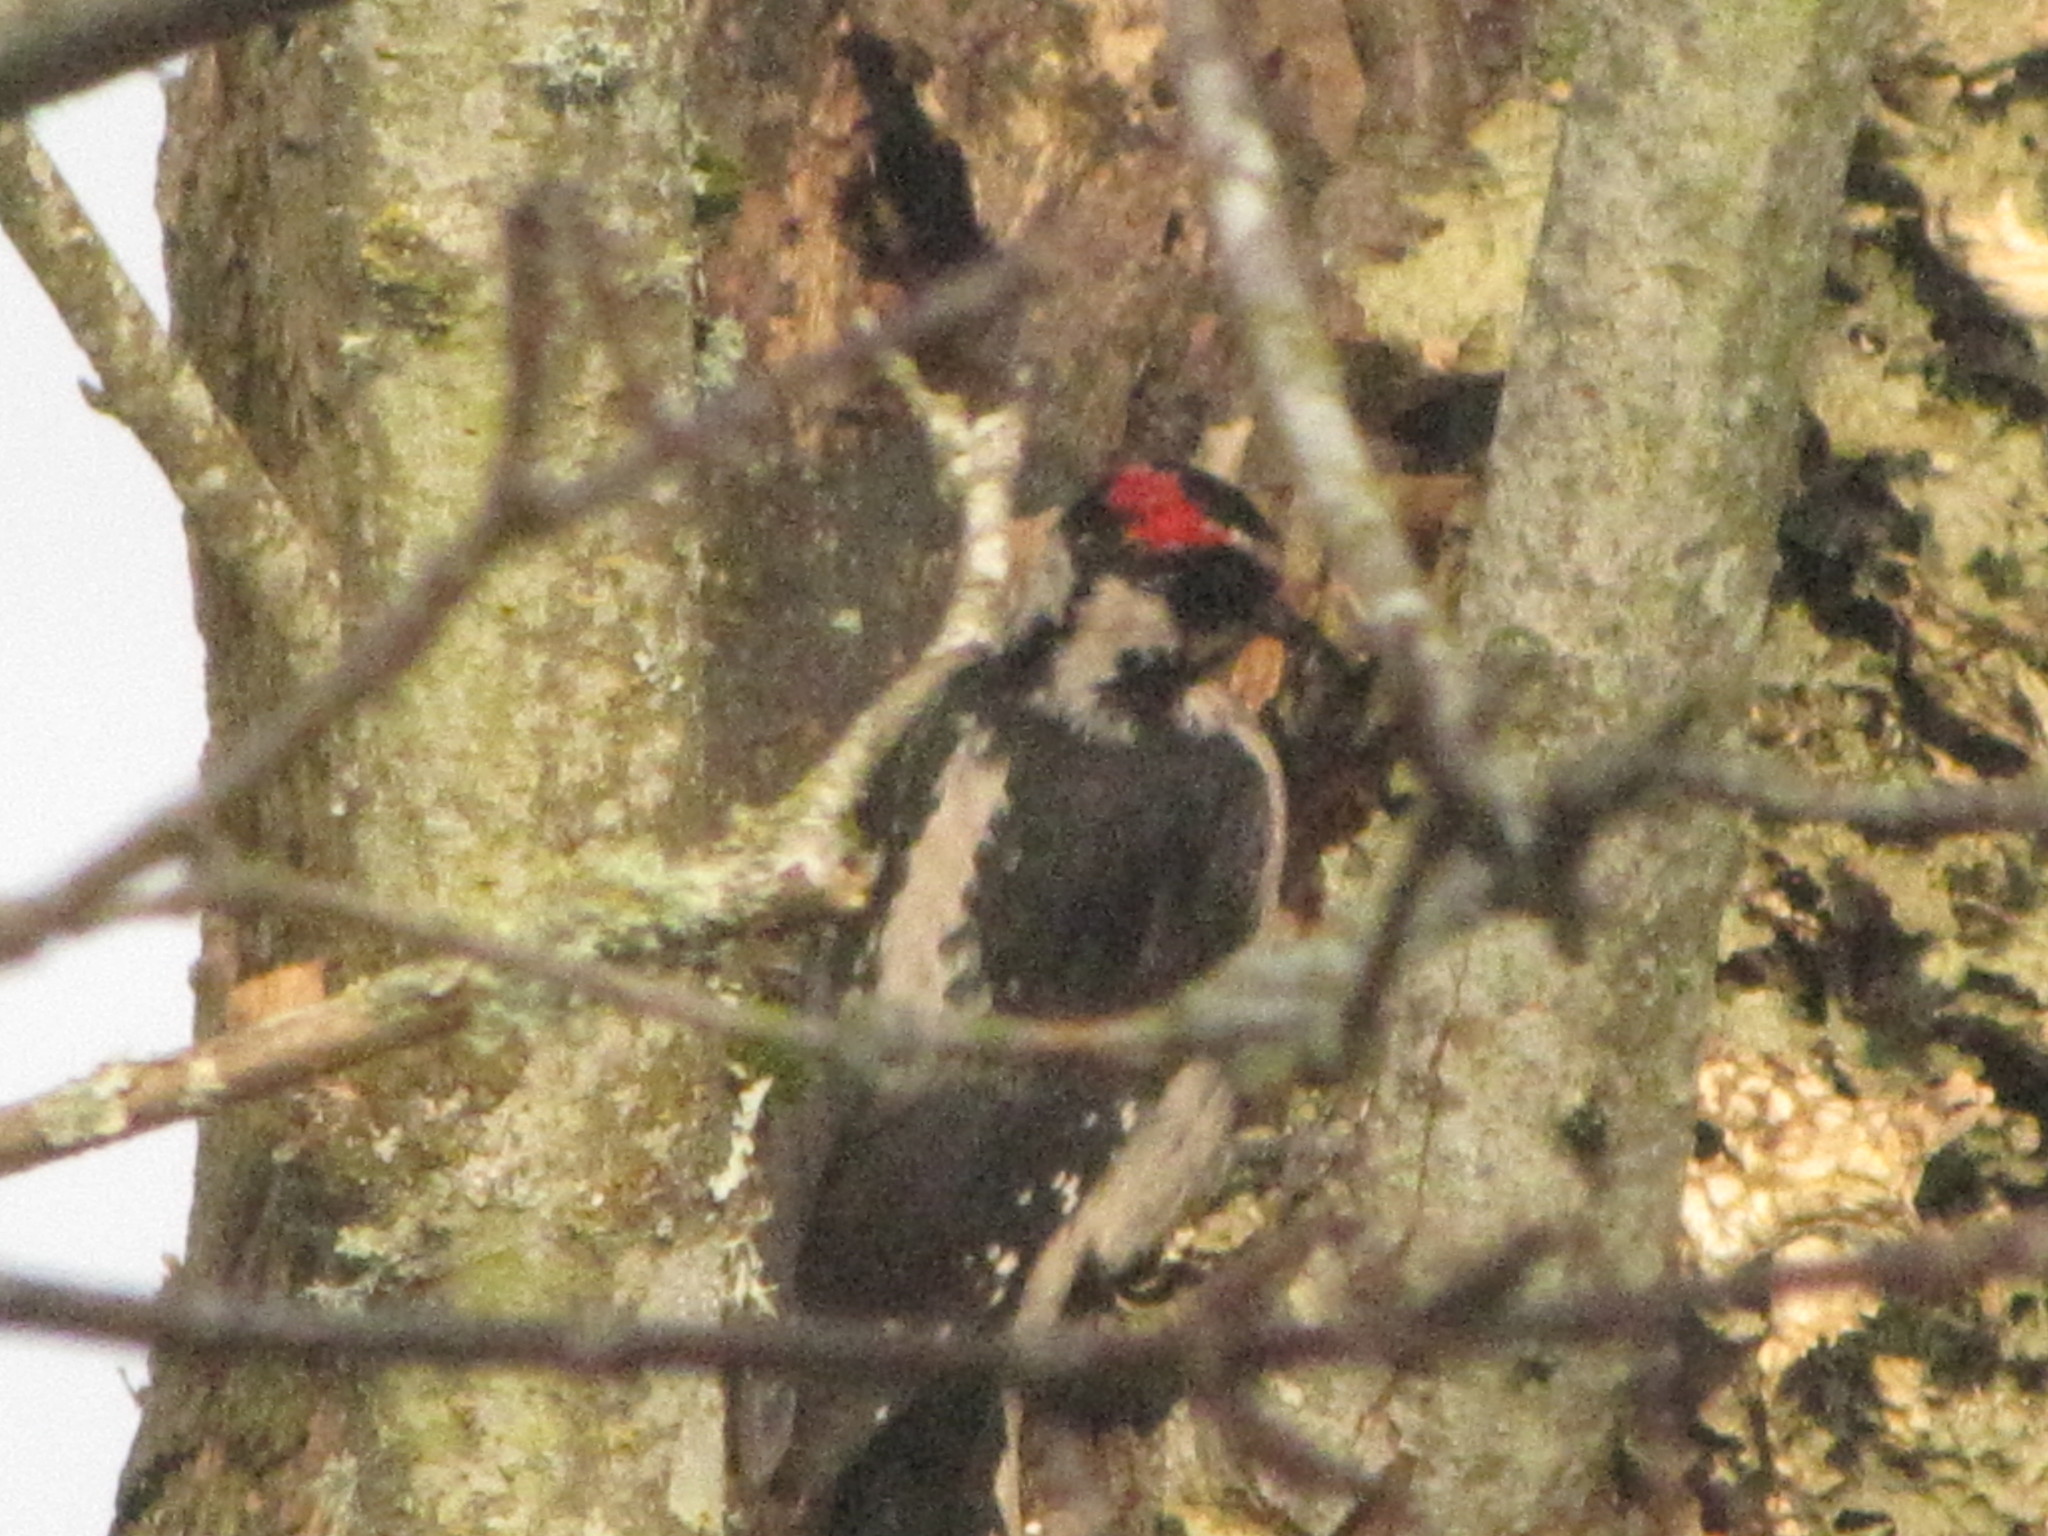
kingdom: Animalia
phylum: Chordata
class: Aves
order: Piciformes
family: Picidae
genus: Leuconotopicus
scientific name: Leuconotopicus villosus
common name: Hairy woodpecker
